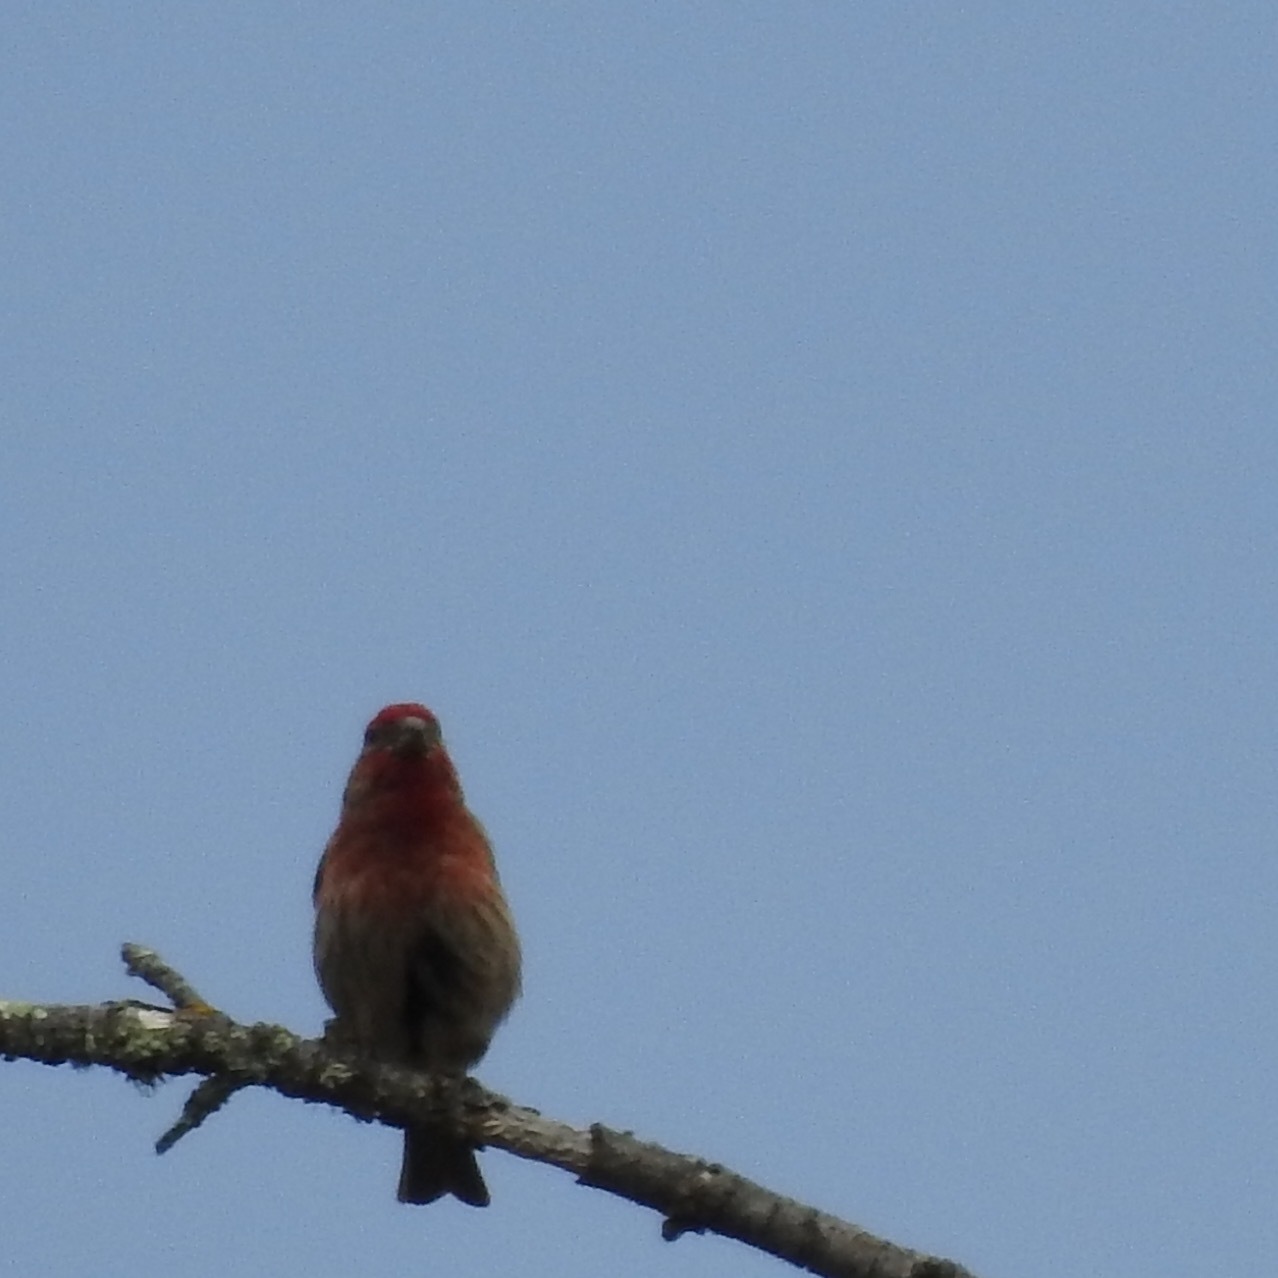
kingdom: Animalia
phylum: Chordata
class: Aves
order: Passeriformes
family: Fringillidae
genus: Haemorhous
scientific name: Haemorhous mexicanus
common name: House finch
